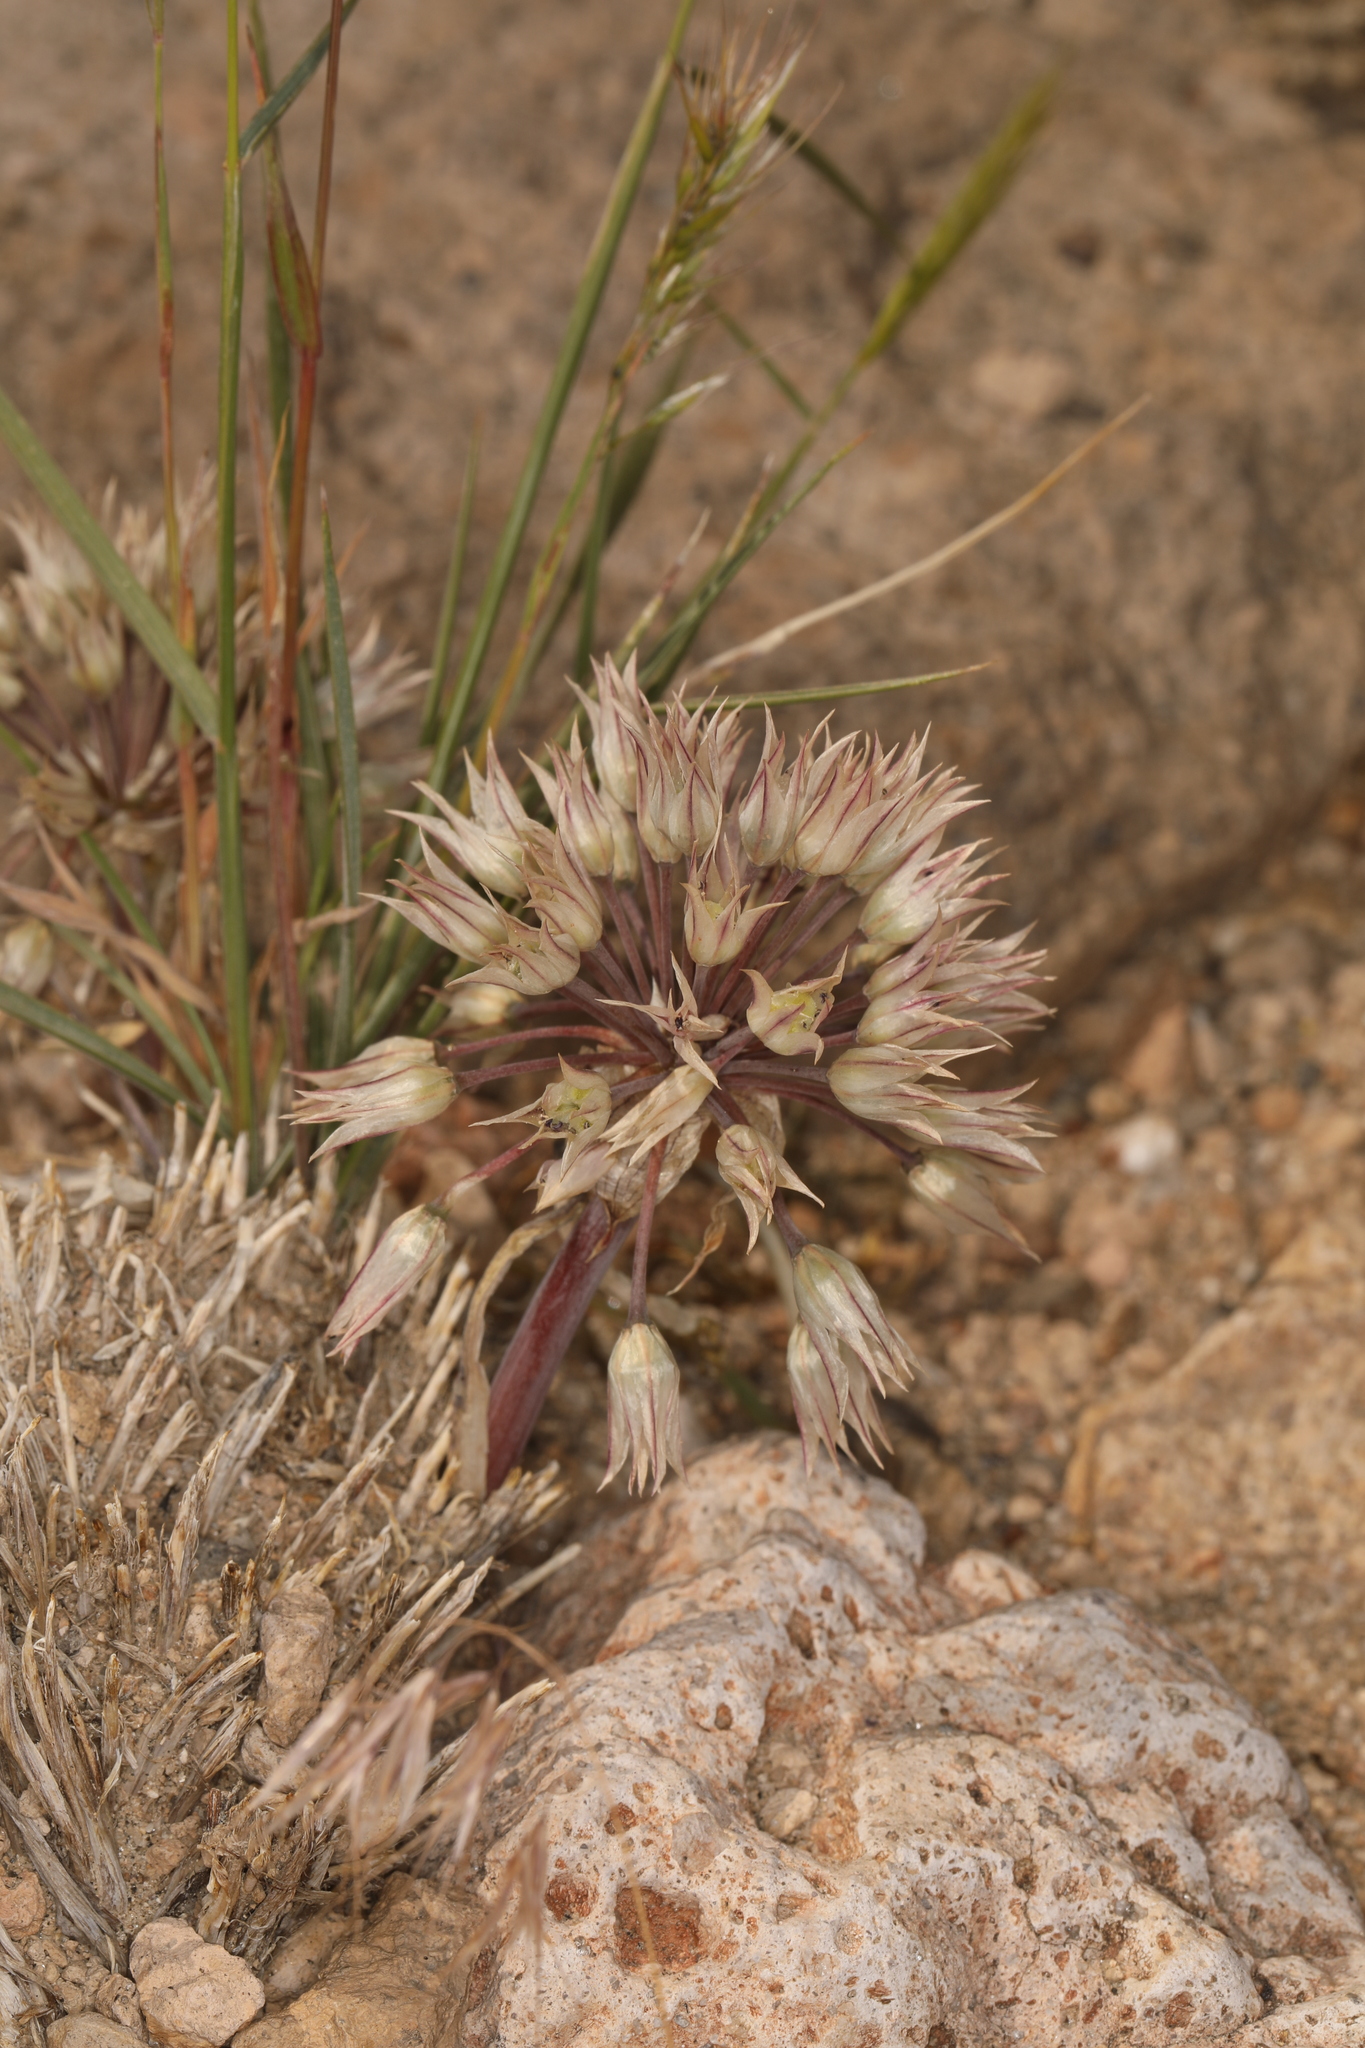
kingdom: Plantae
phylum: Tracheophyta
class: Liliopsida
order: Asparagales
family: Amaryllidaceae
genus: Allium
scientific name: Allium atrorubens
